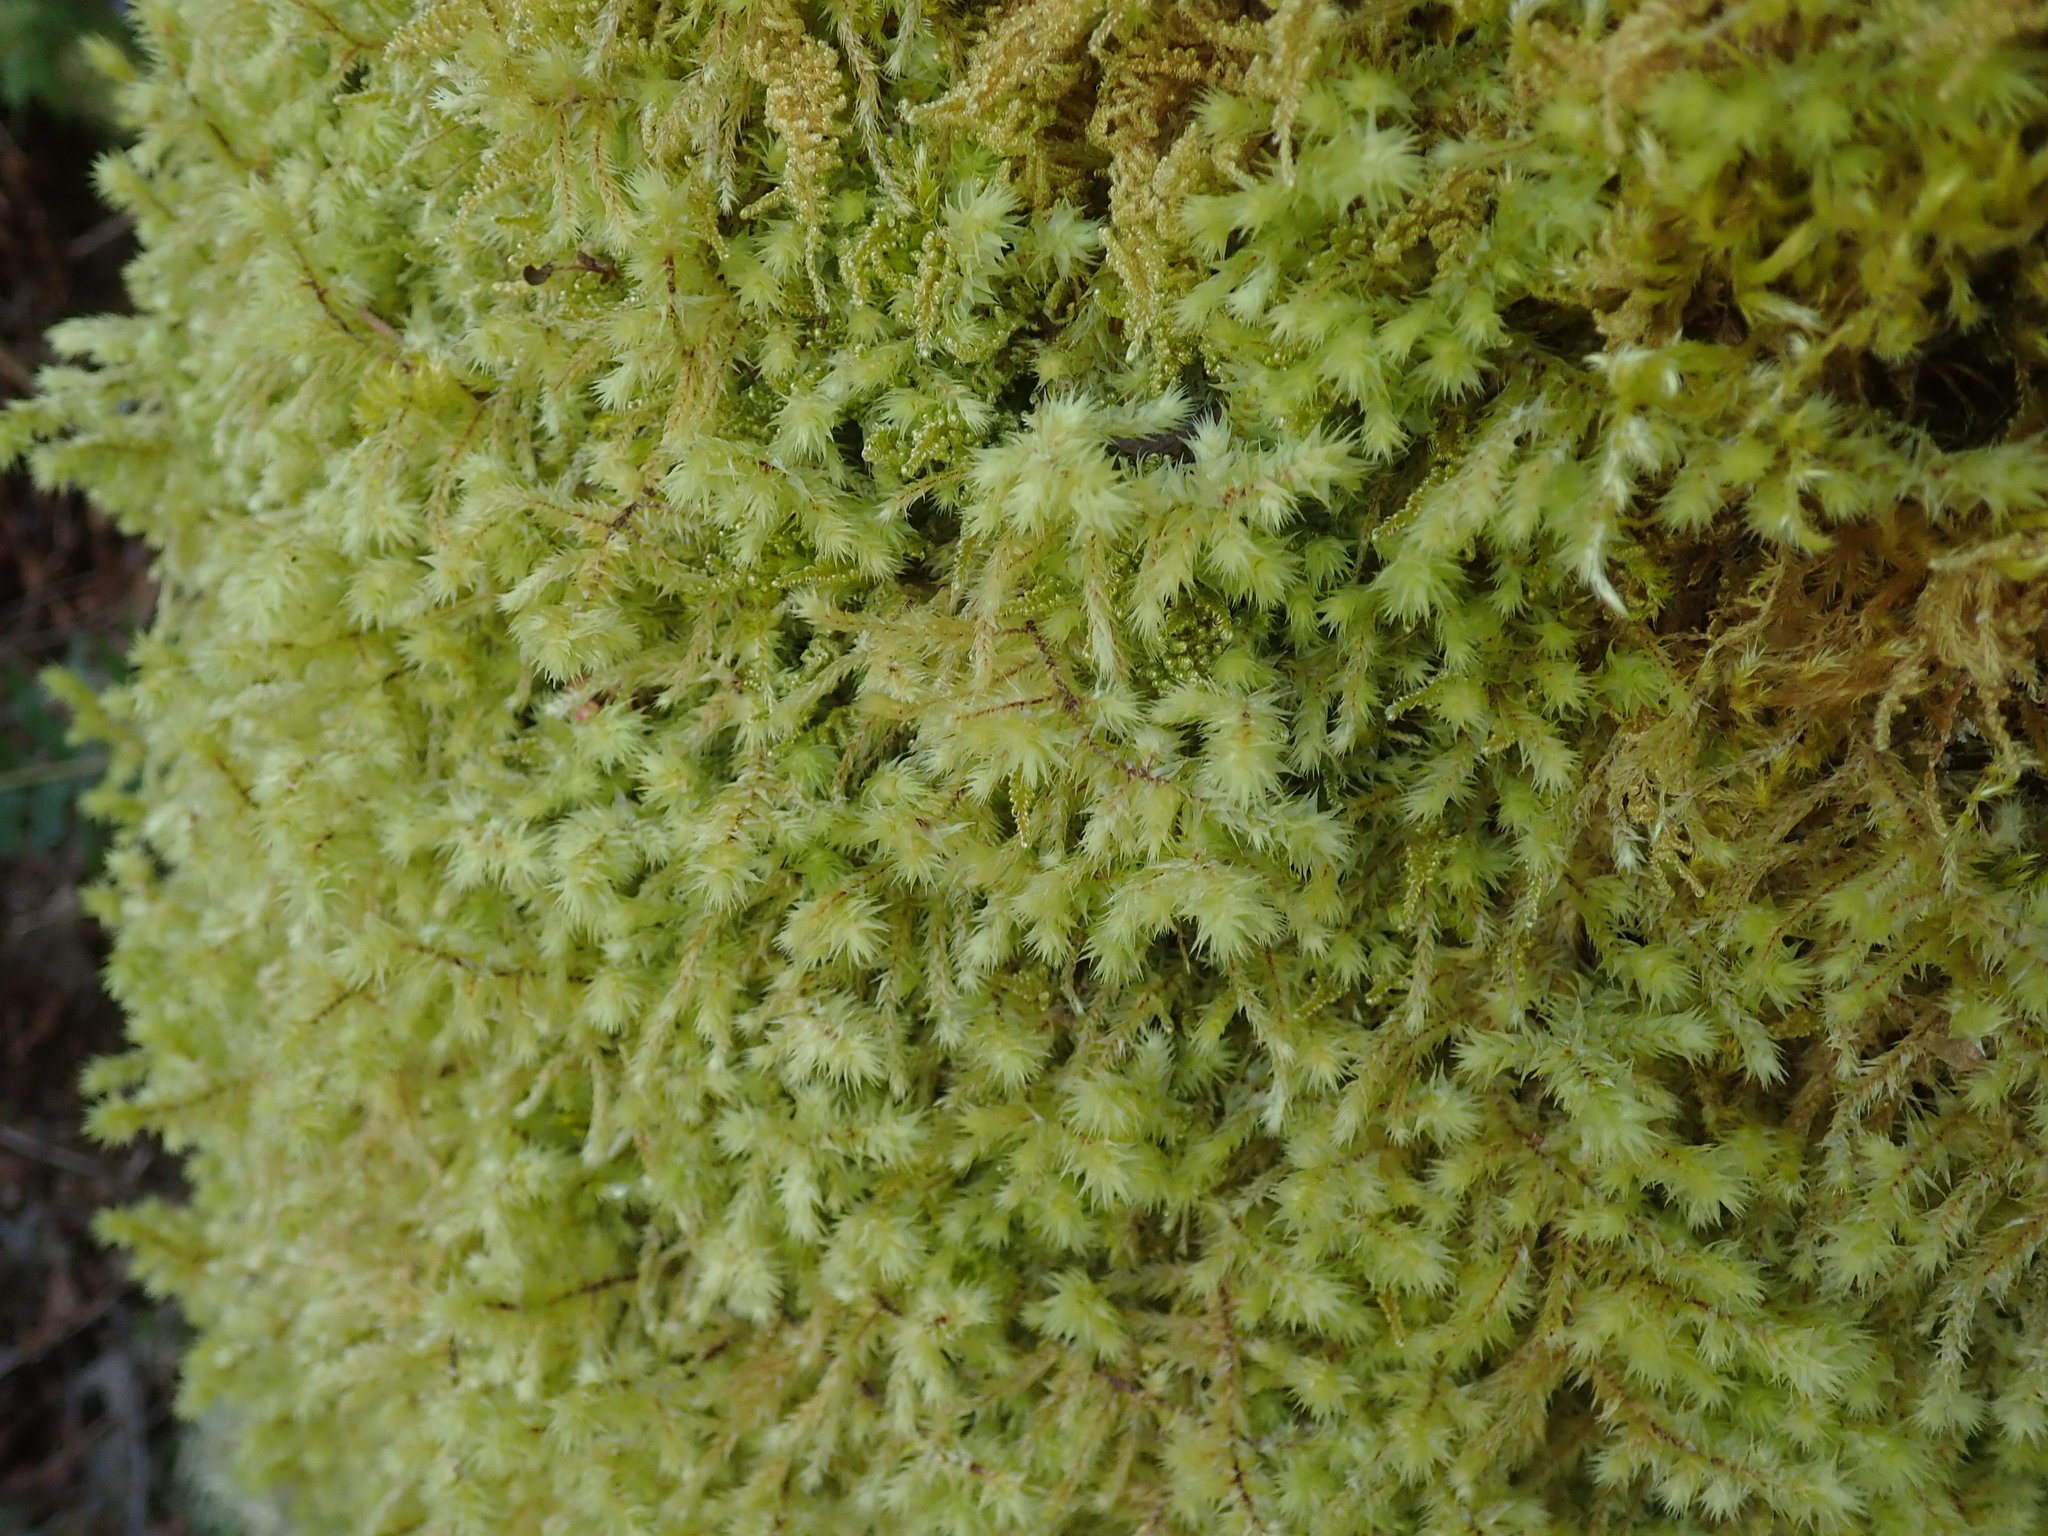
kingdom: Plantae
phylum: Bryophyta
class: Bryopsida
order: Hypnales
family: Hylocomiaceae
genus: Hylocomiadelphus
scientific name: Hylocomiadelphus triquetrus
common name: Rough goose neck moss
